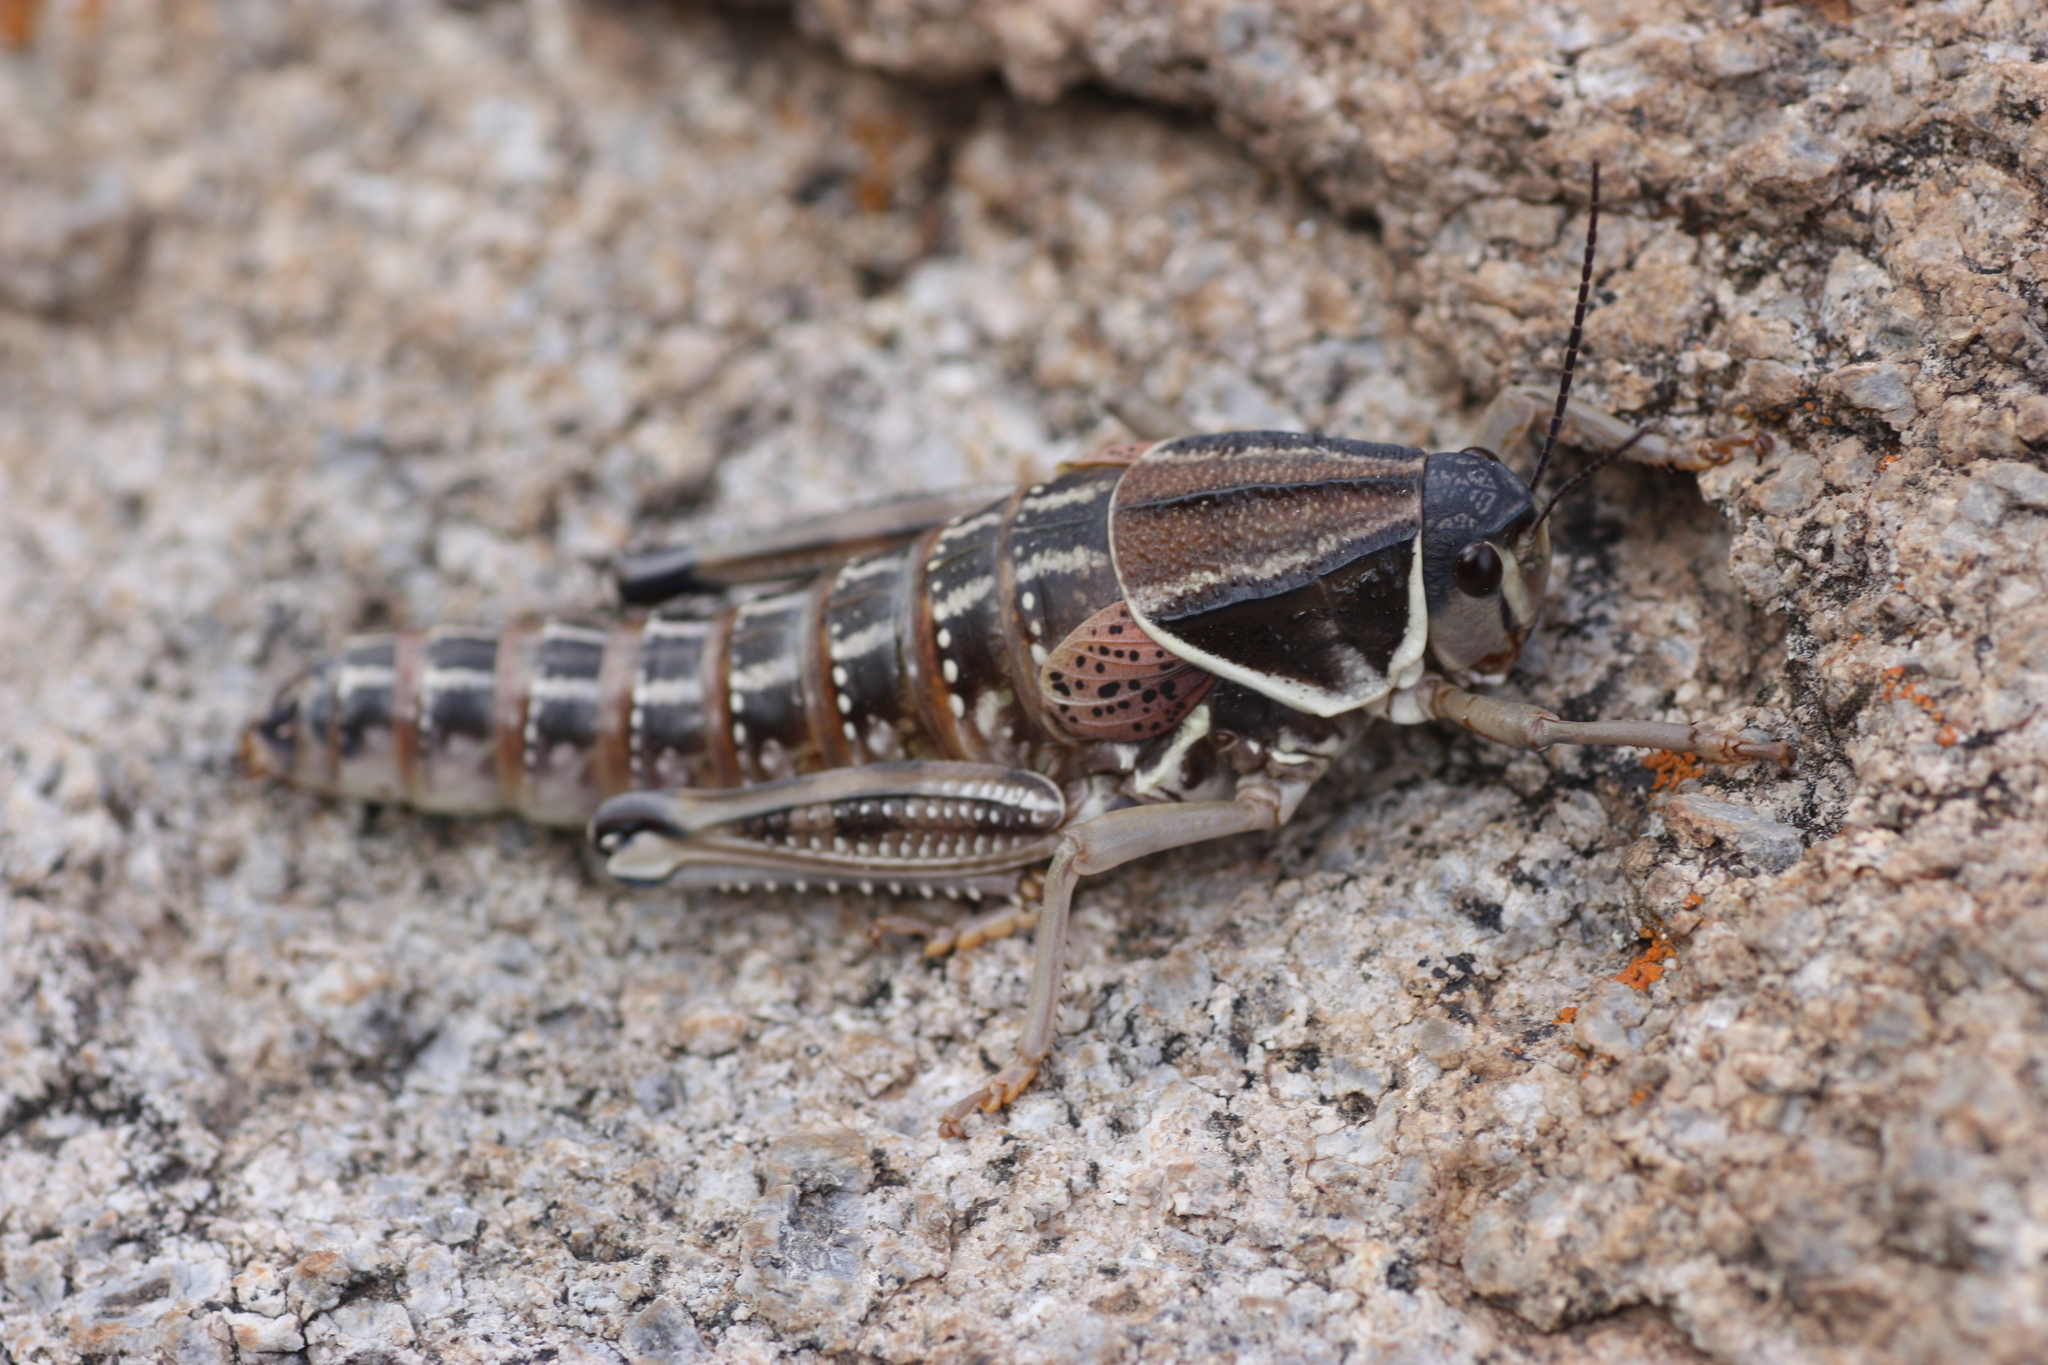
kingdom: Animalia
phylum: Arthropoda
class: Insecta
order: Orthoptera
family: Romaleidae
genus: Brachystola
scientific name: Brachystola magna
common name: Plains lubber grasshopper
